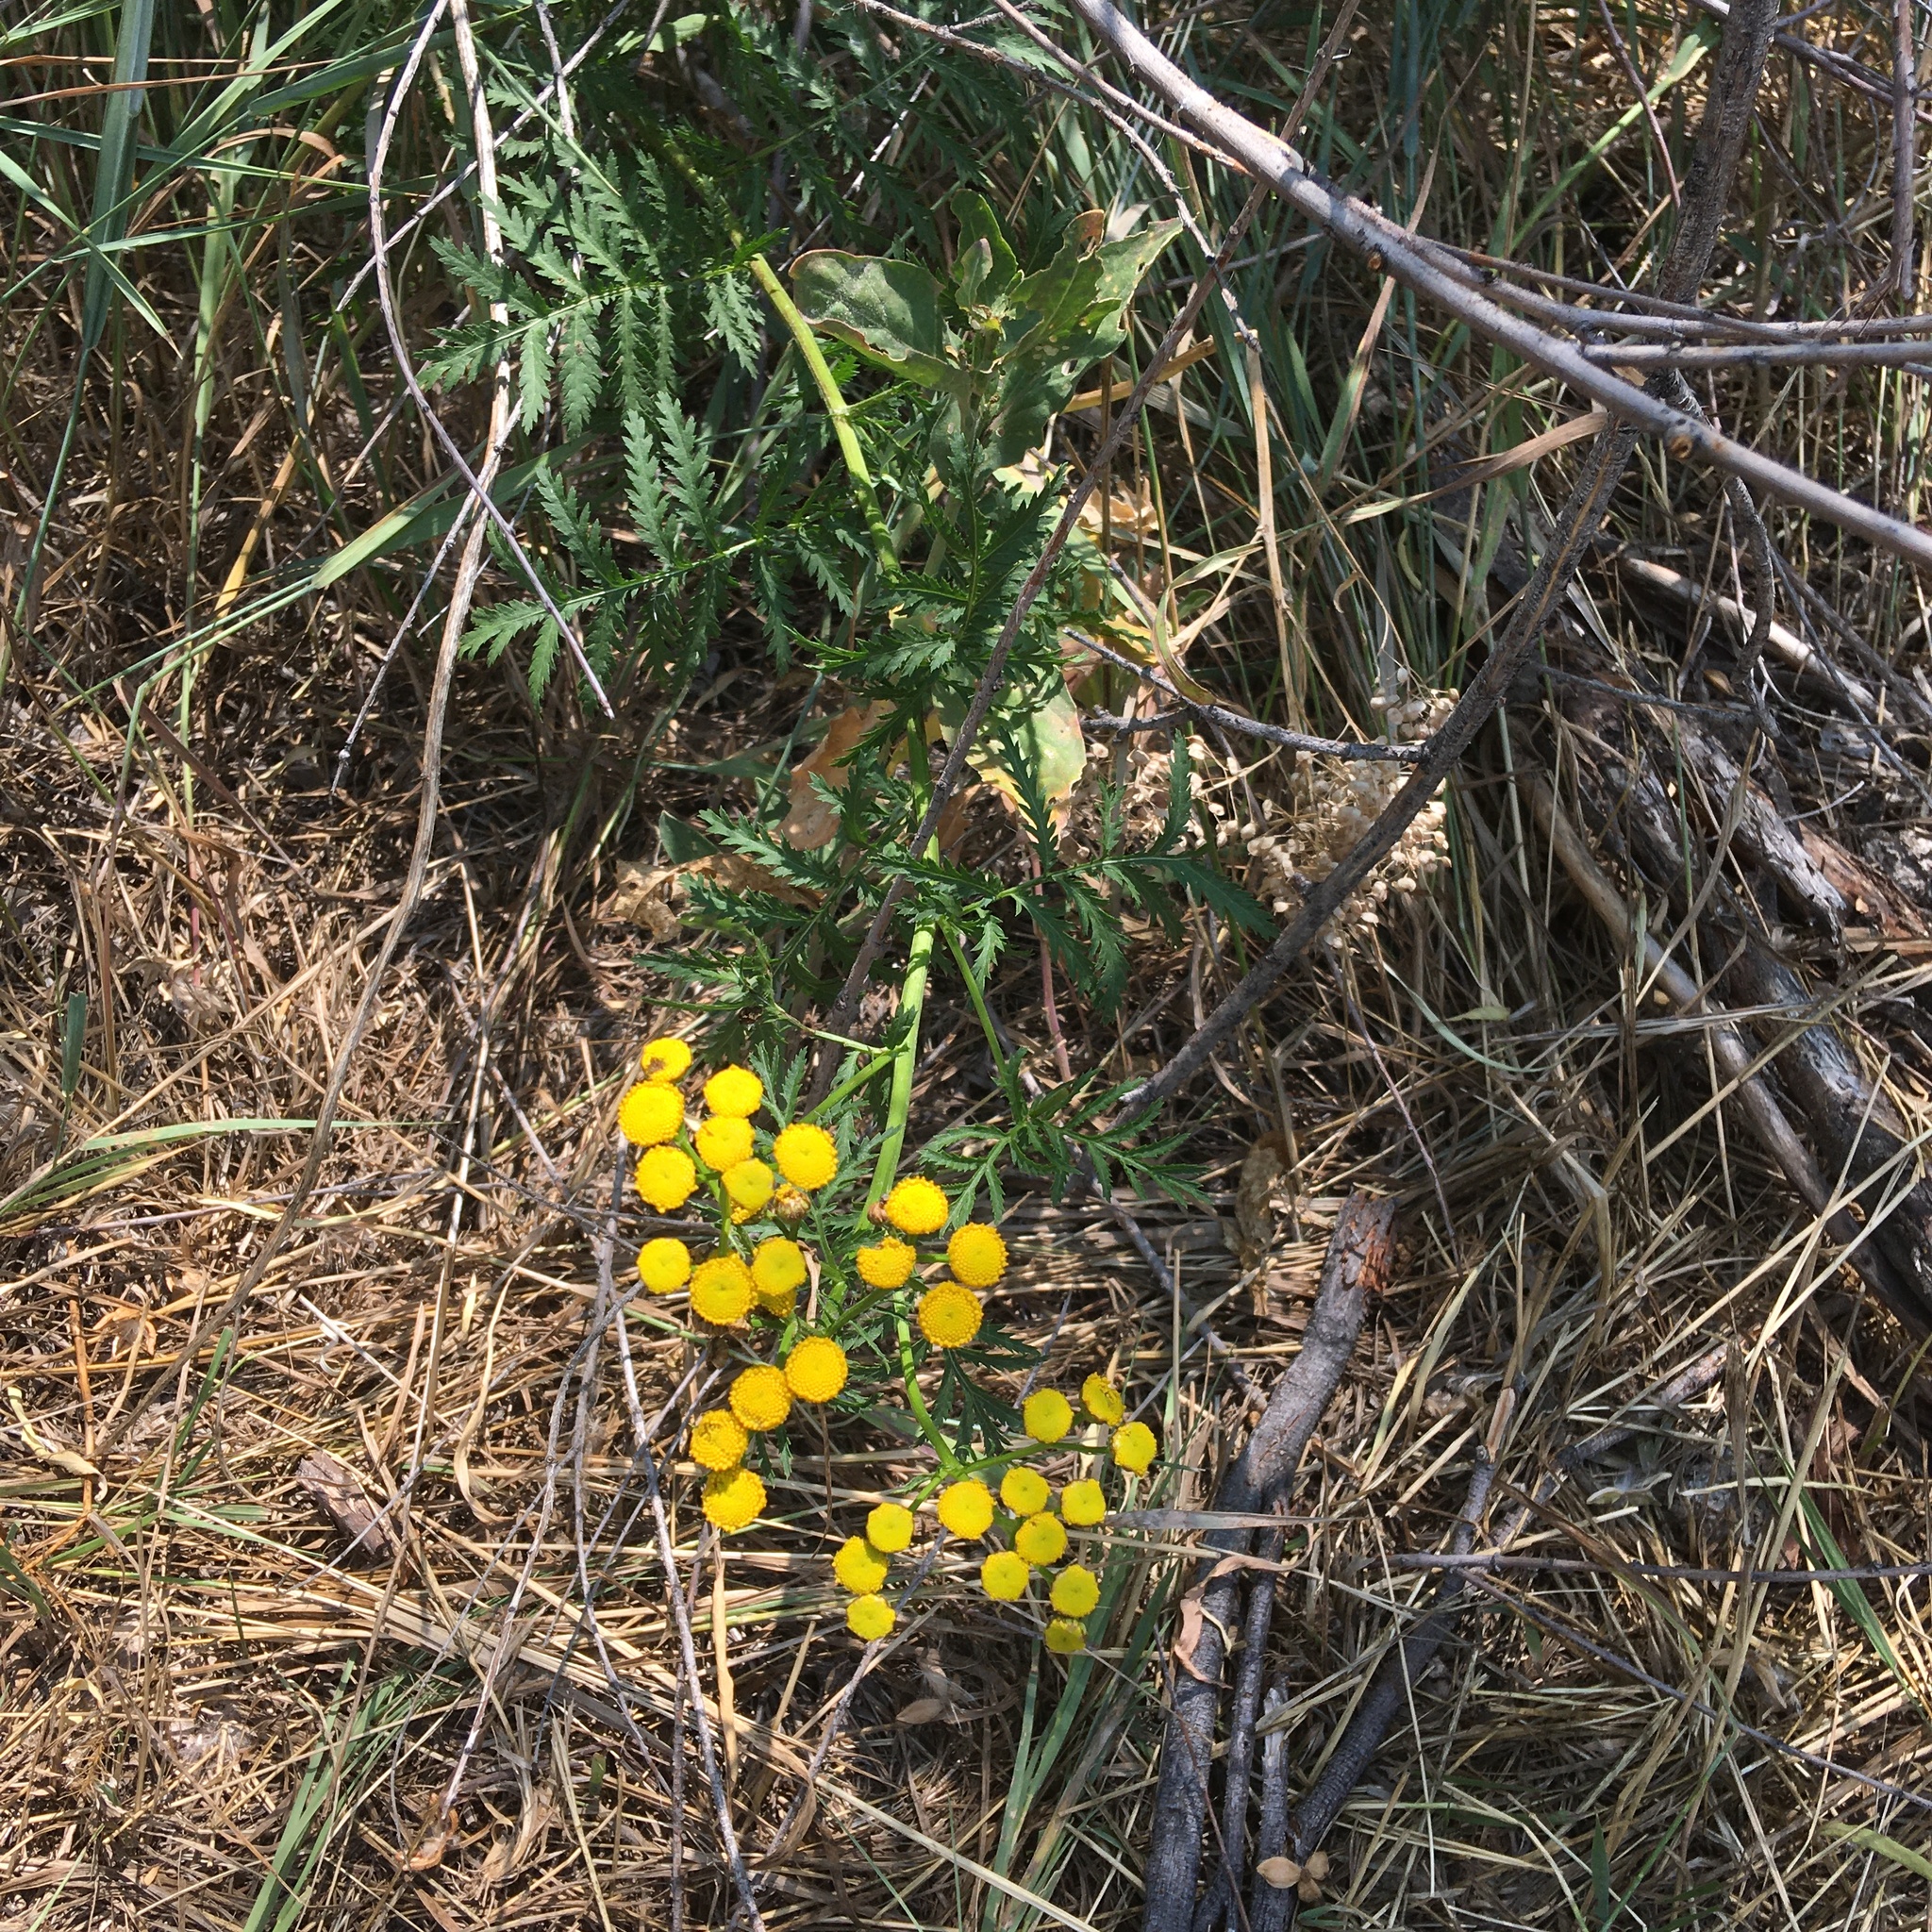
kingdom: Plantae
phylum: Tracheophyta
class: Magnoliopsida
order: Asterales
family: Asteraceae
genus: Tanacetum
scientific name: Tanacetum vulgare
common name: Common tansy
